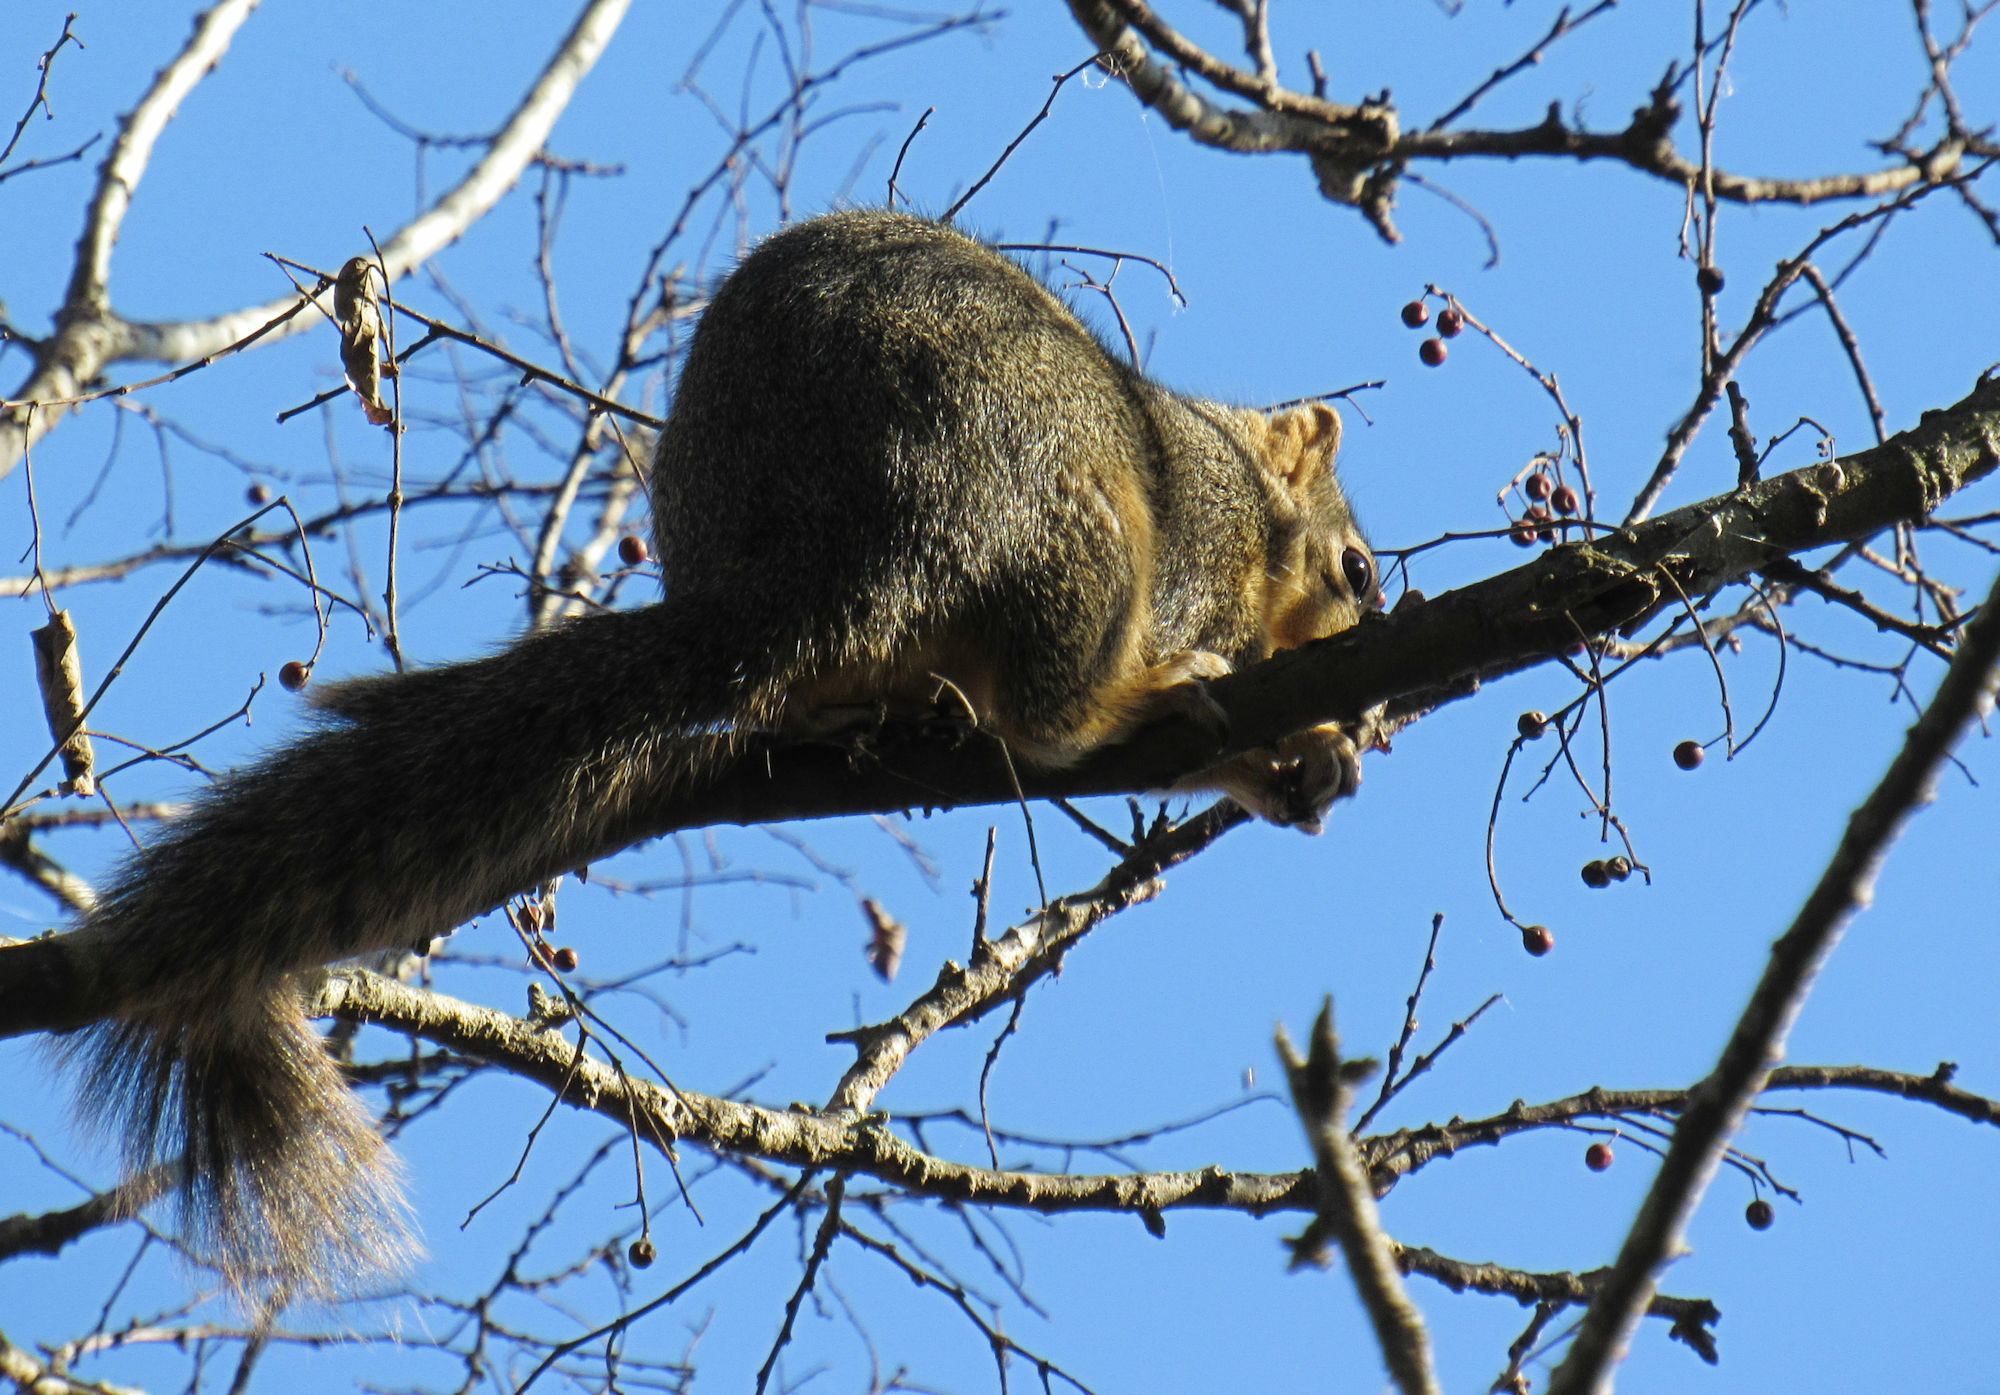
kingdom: Animalia
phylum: Chordata
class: Mammalia
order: Rodentia
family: Sciuridae
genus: Sciurus
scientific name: Sciurus niger
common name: Fox squirrel
